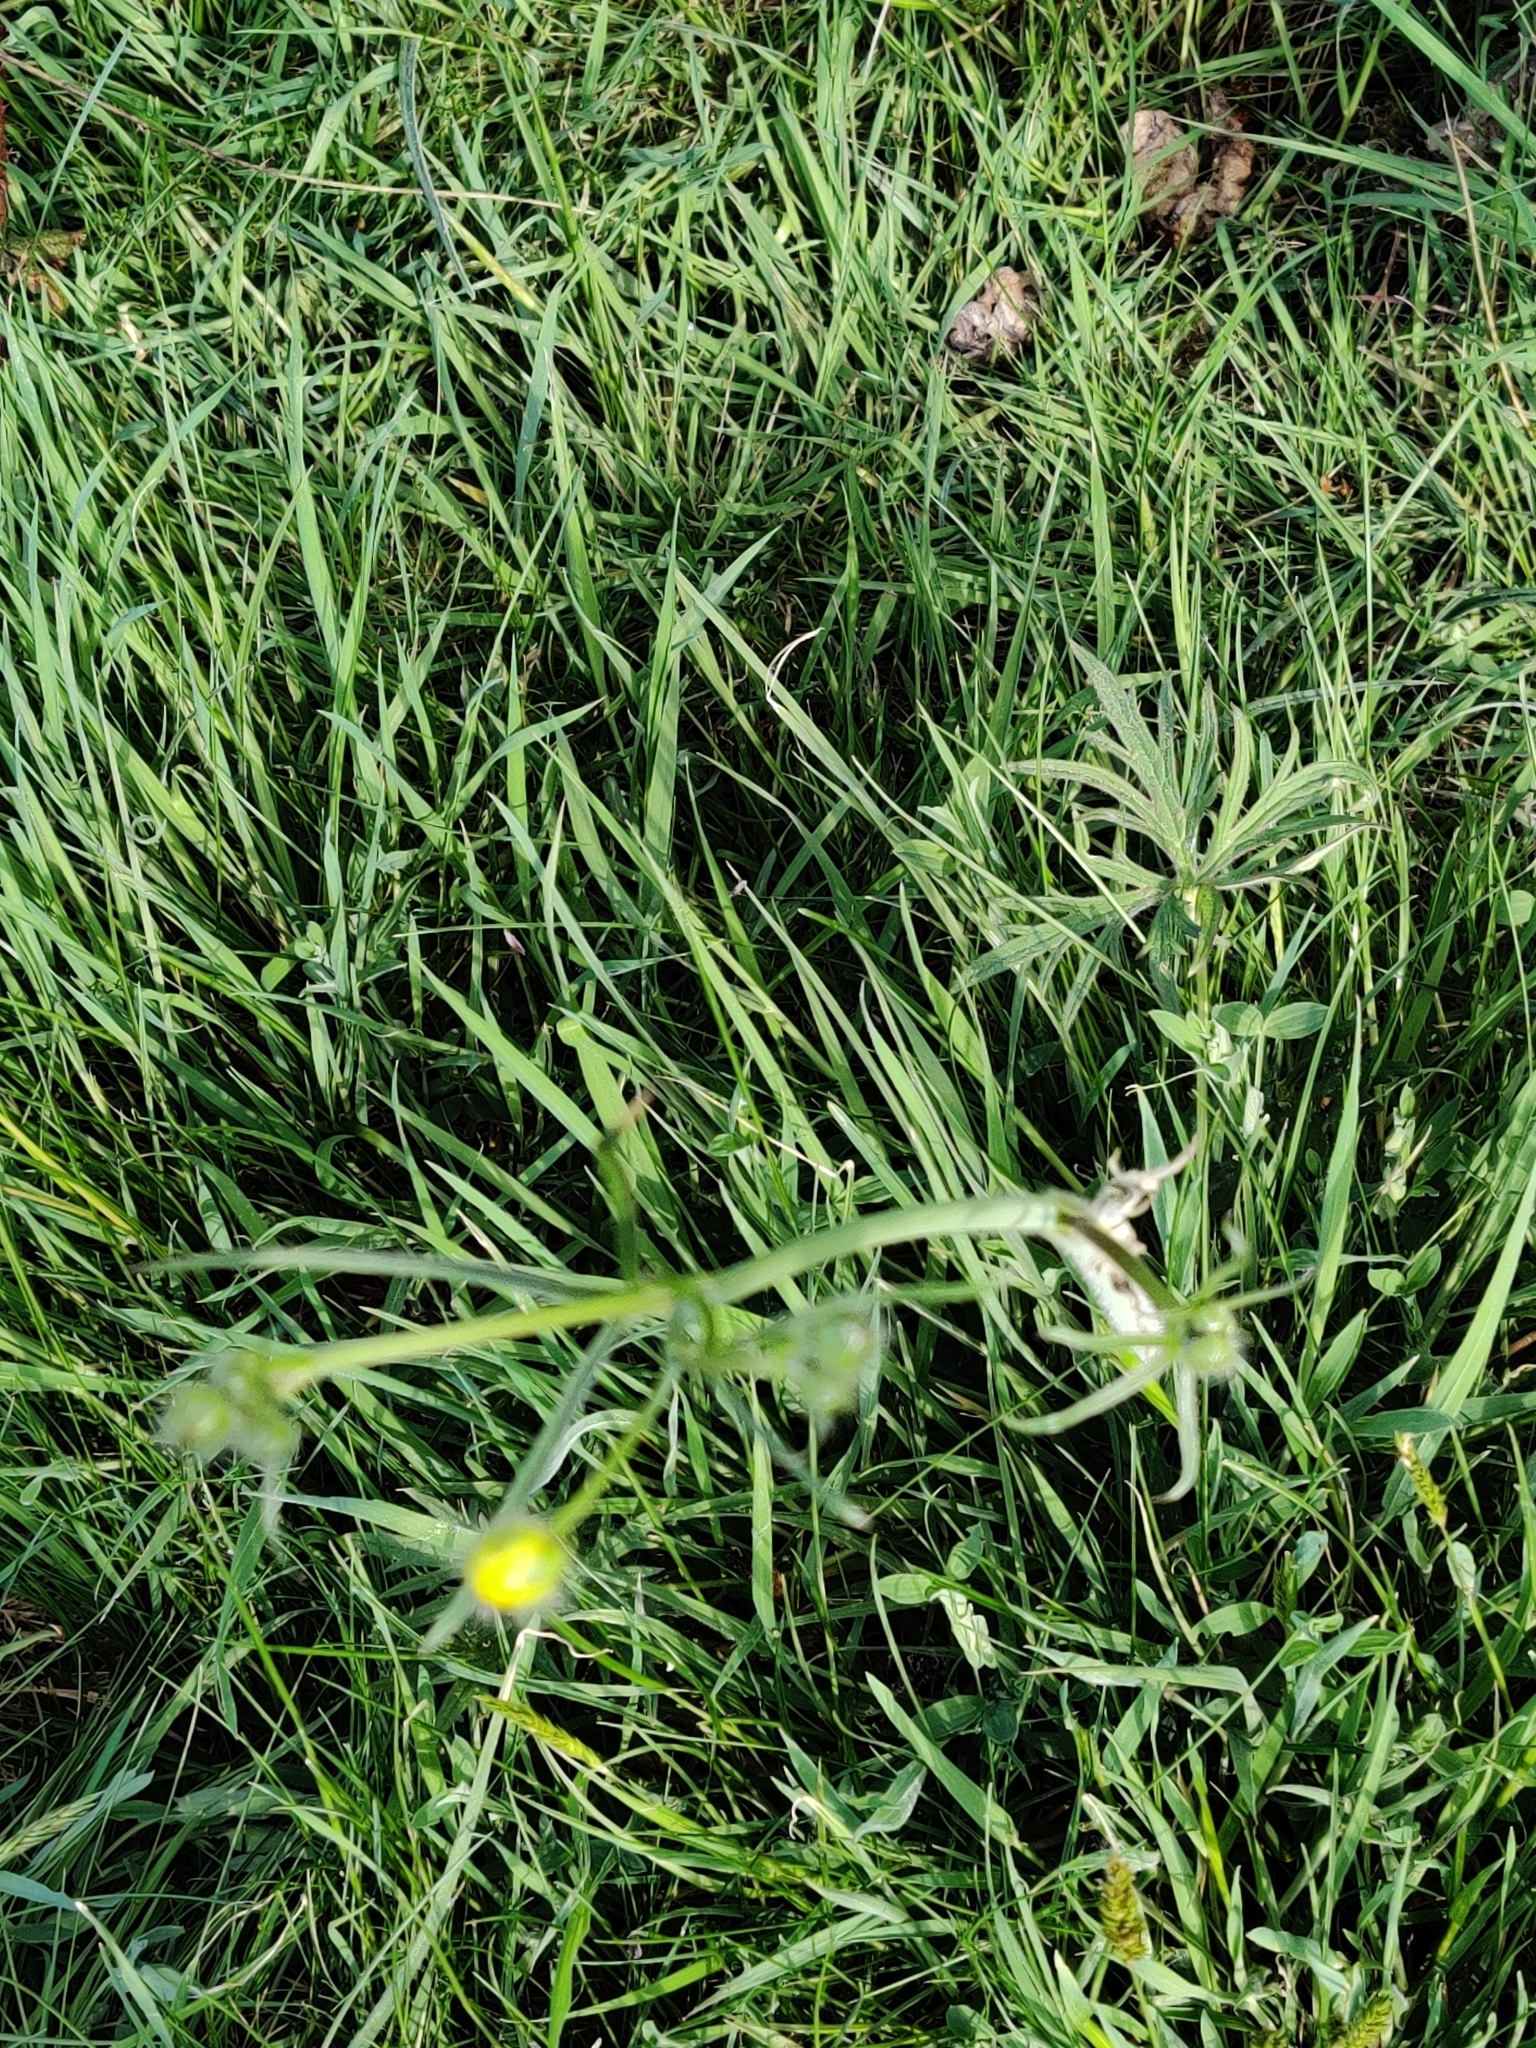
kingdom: Plantae
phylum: Tracheophyta
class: Magnoliopsida
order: Ranunculales
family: Ranunculaceae
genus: Ranunculus
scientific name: Ranunculus acris
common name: Meadow buttercup
